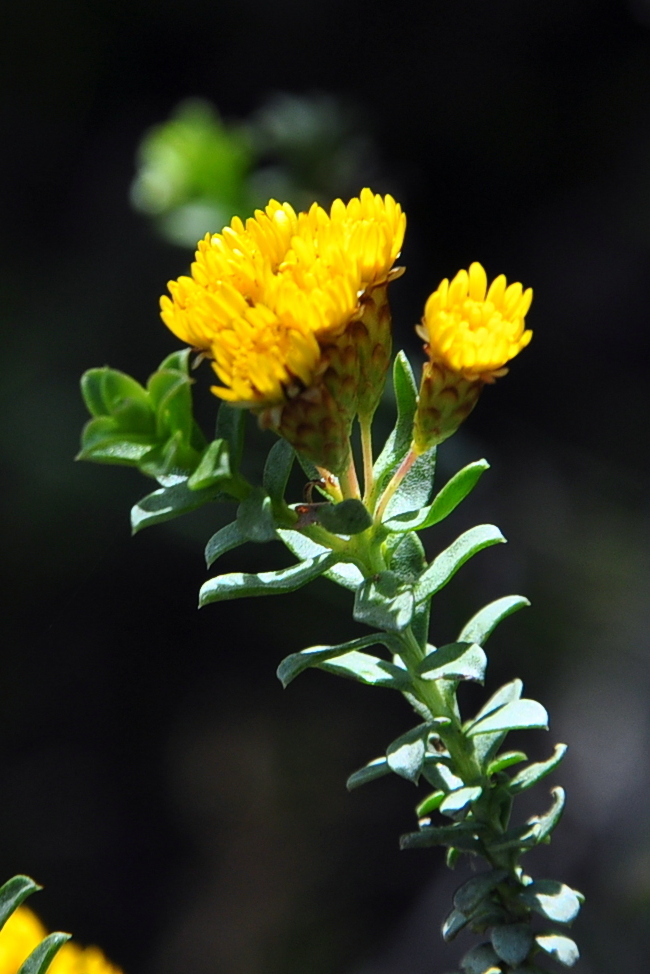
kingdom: Plantae
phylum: Tracheophyta
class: Magnoliopsida
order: Asterales
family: Asteraceae
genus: Oedera
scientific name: Oedera squarrosa
